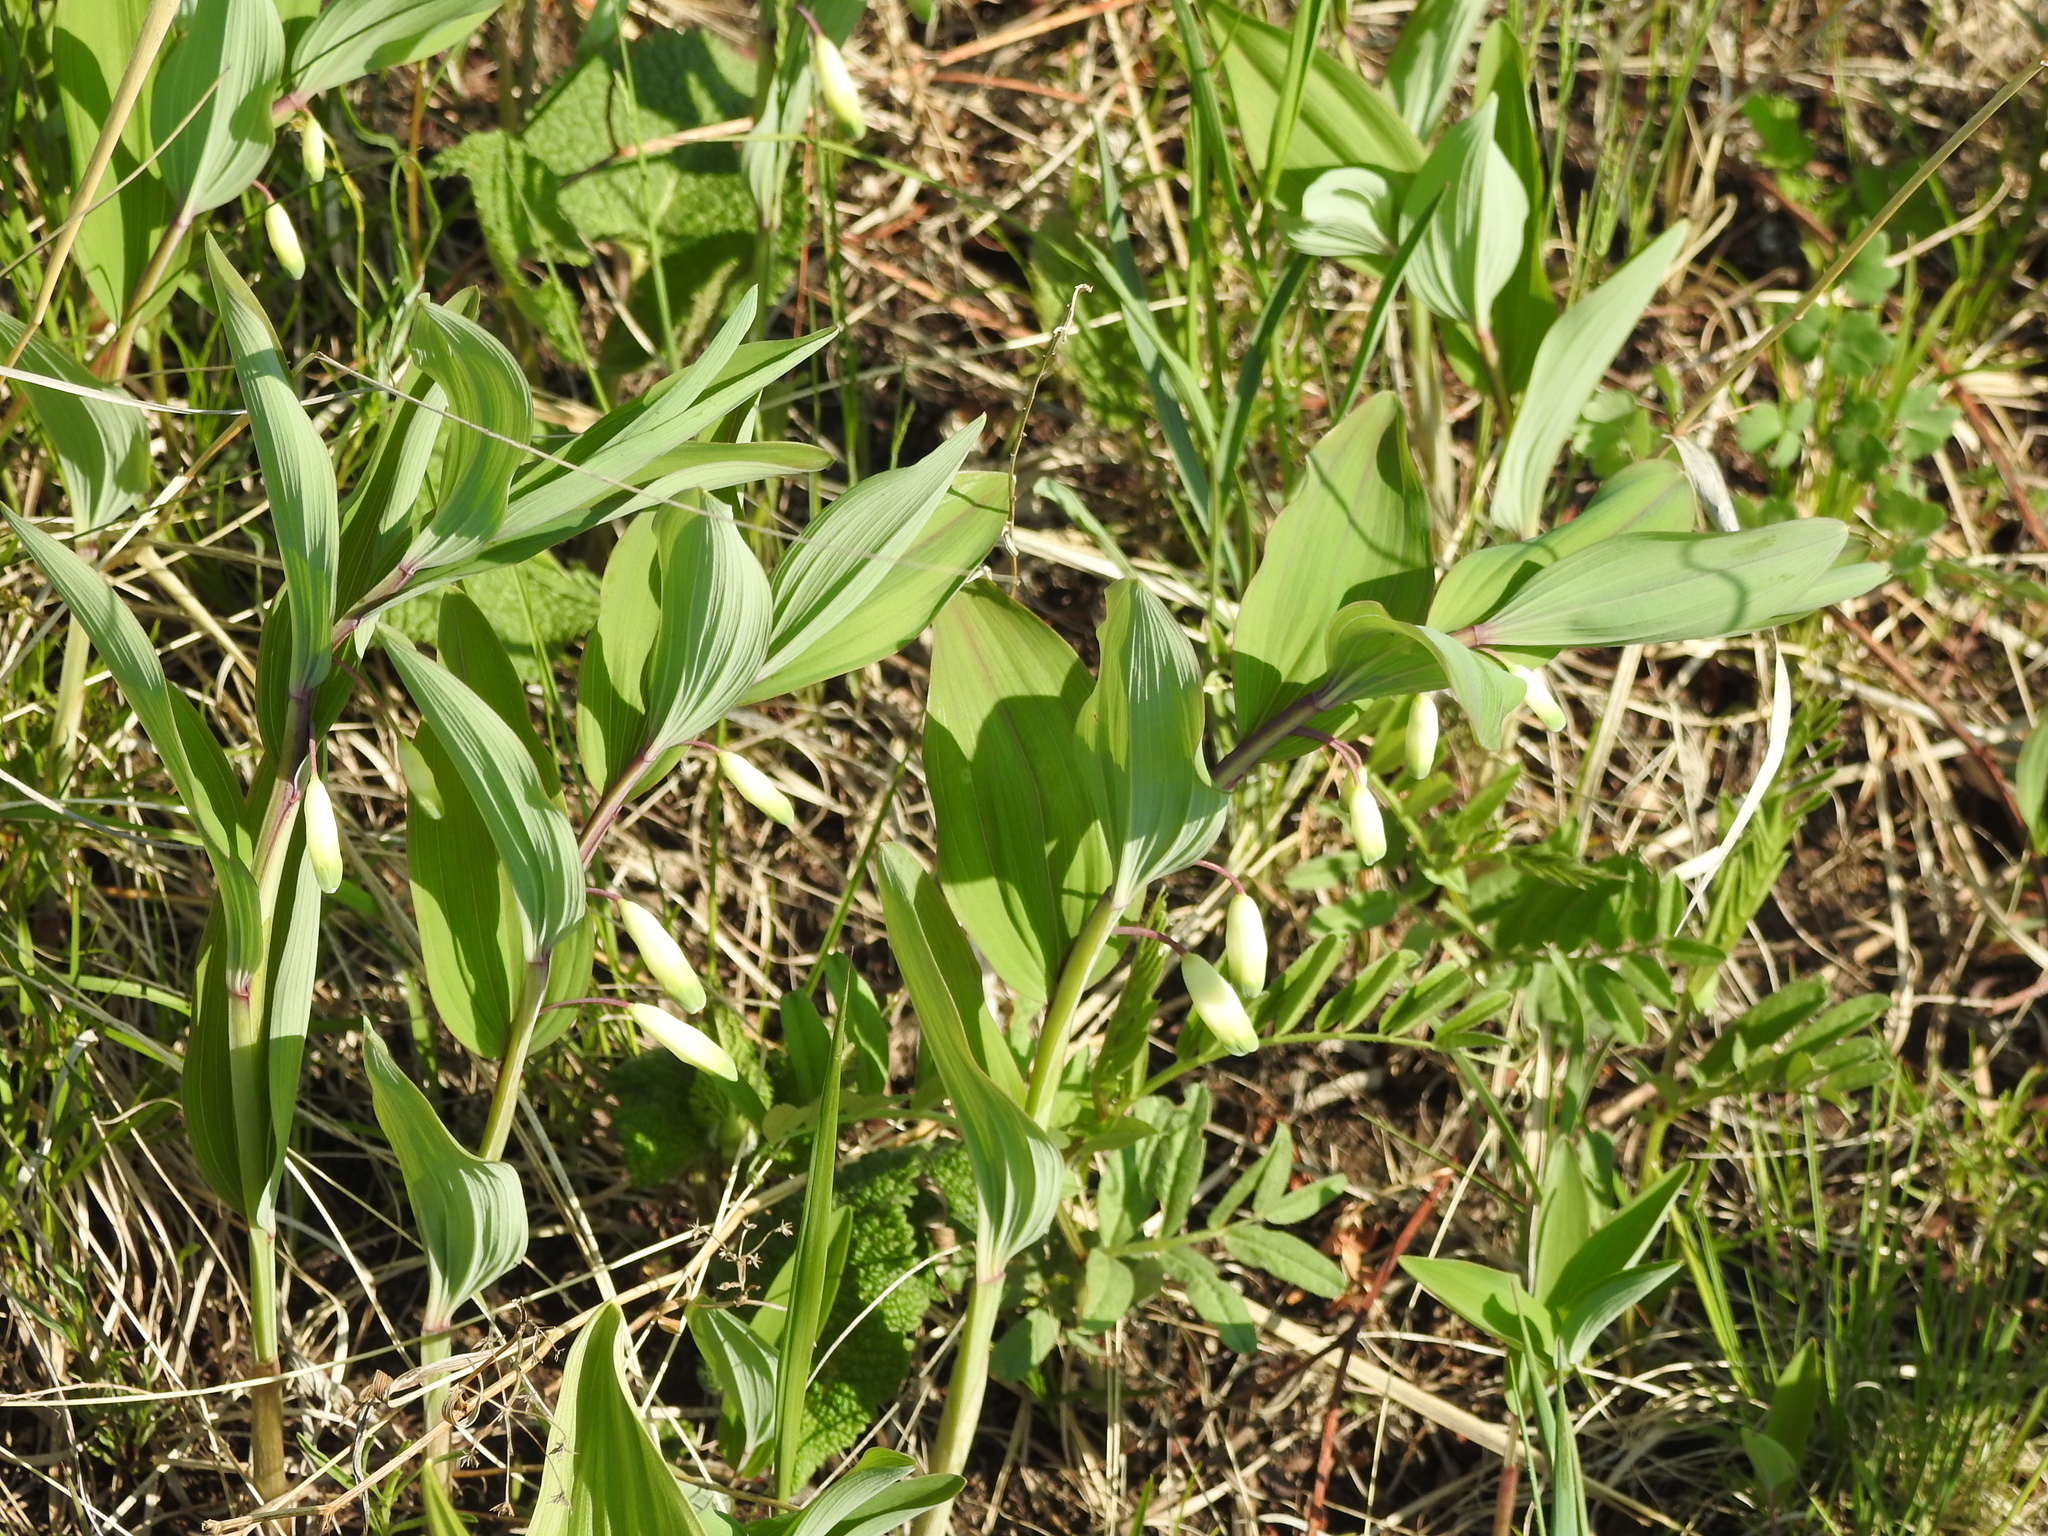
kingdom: Plantae
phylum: Tracheophyta
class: Liliopsida
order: Asparagales
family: Asparagaceae
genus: Polygonatum
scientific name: Polygonatum odoratum
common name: Angular solomon's-seal
